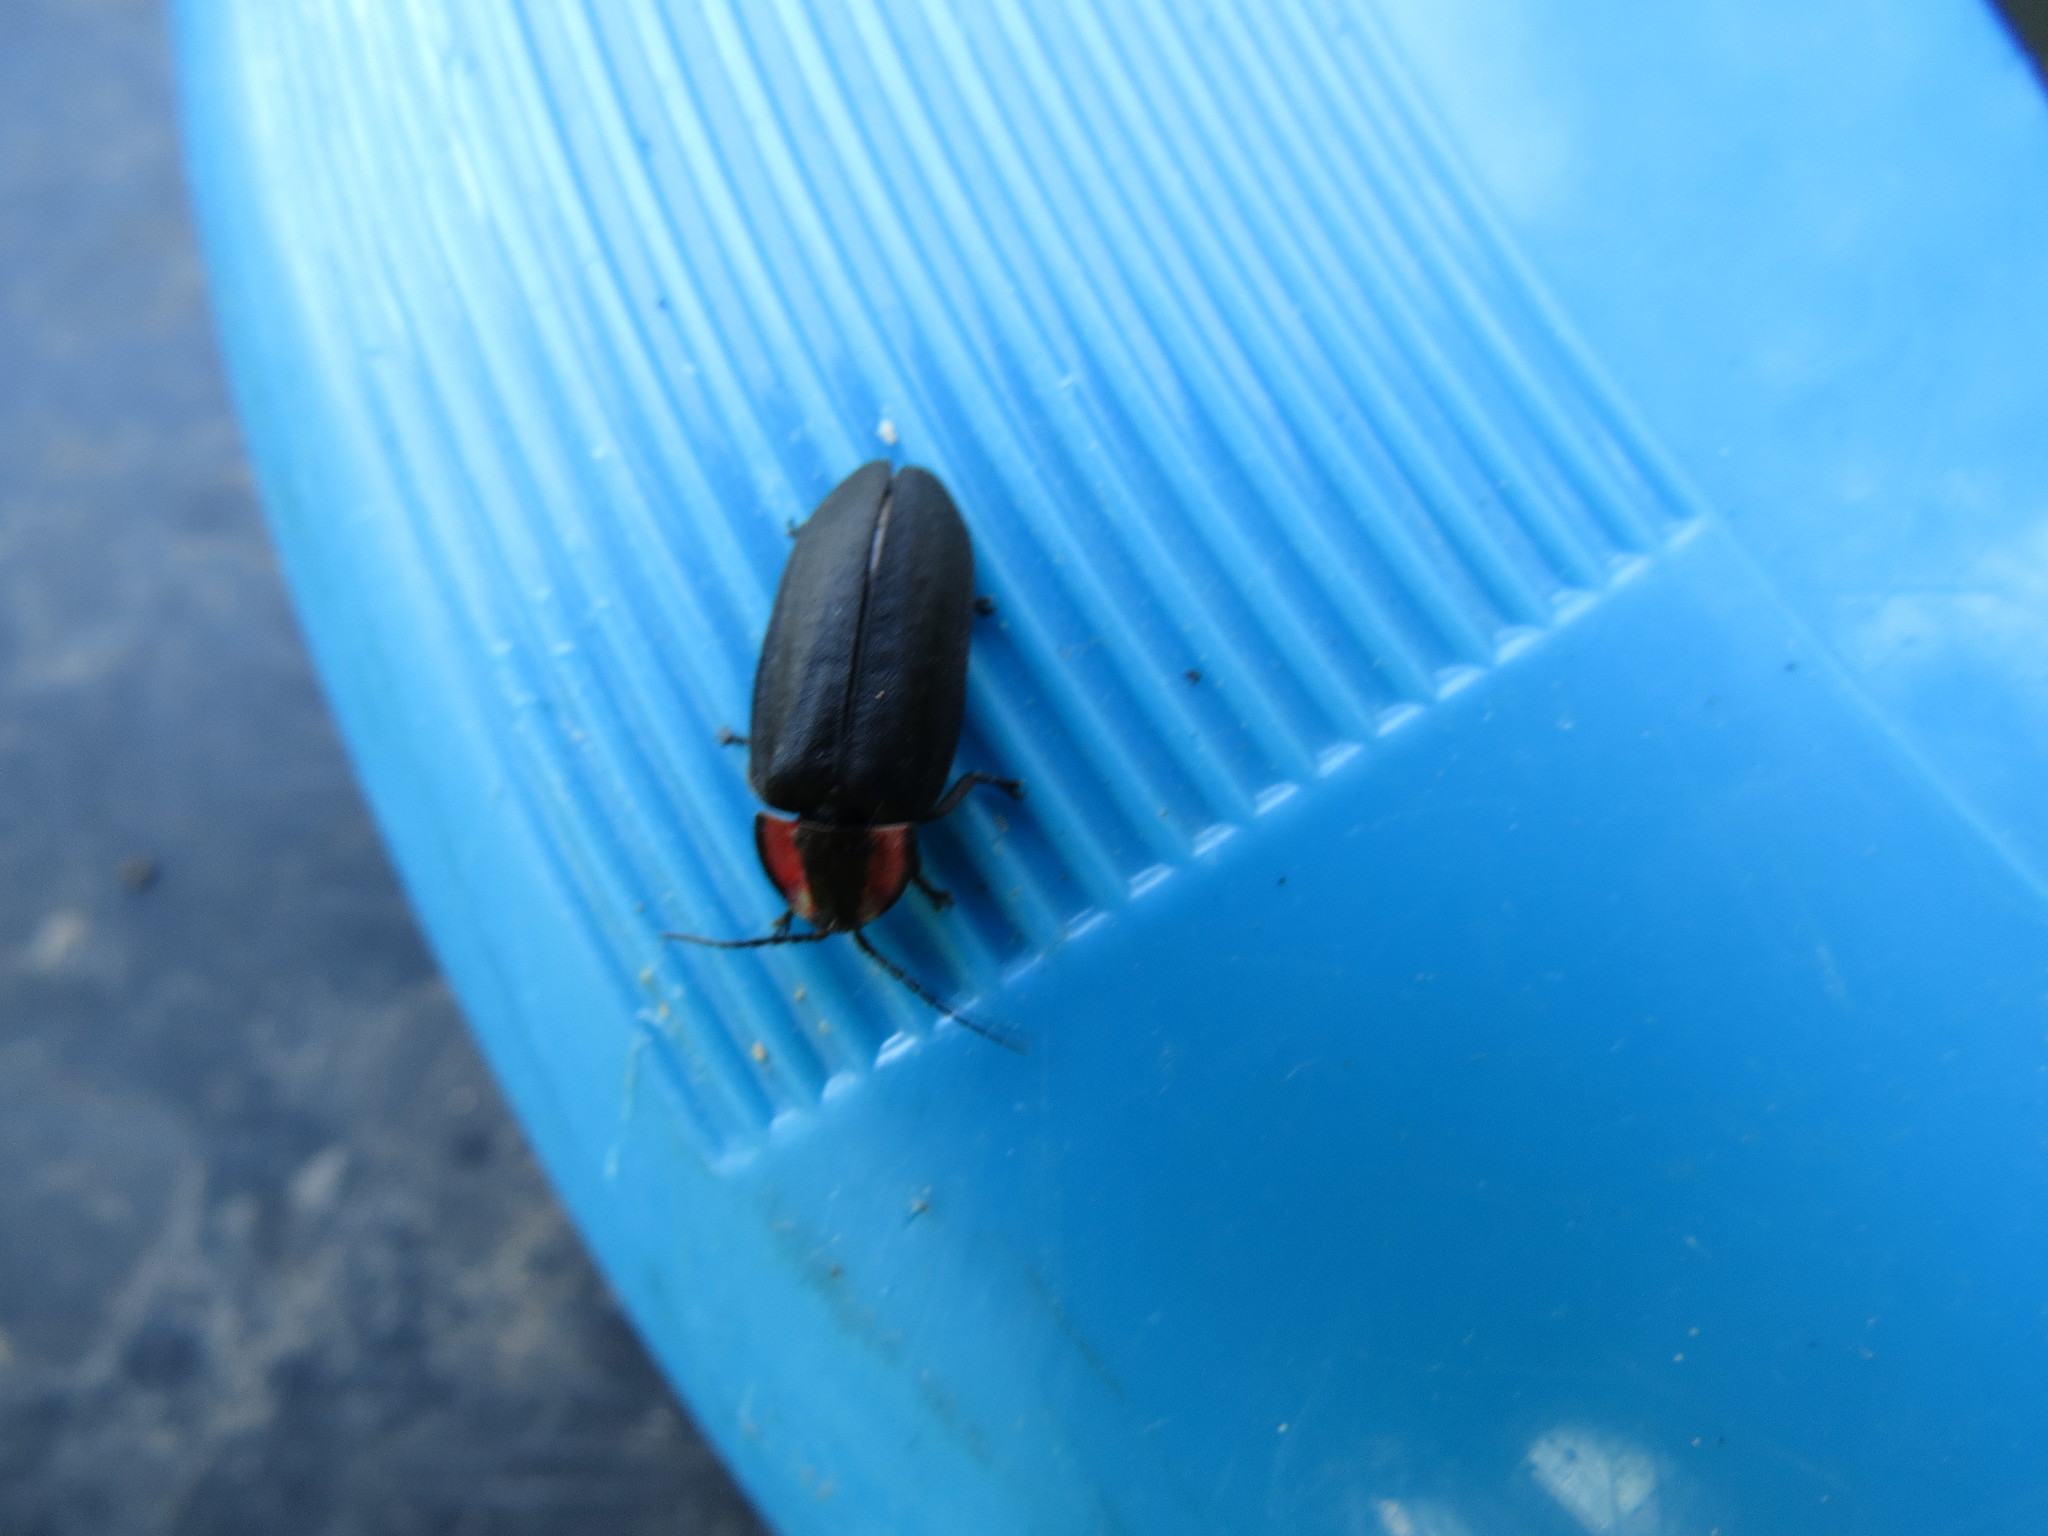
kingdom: Animalia
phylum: Arthropoda
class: Insecta
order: Coleoptera
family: Lampyridae
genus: Photinus
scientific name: Photinus californica
